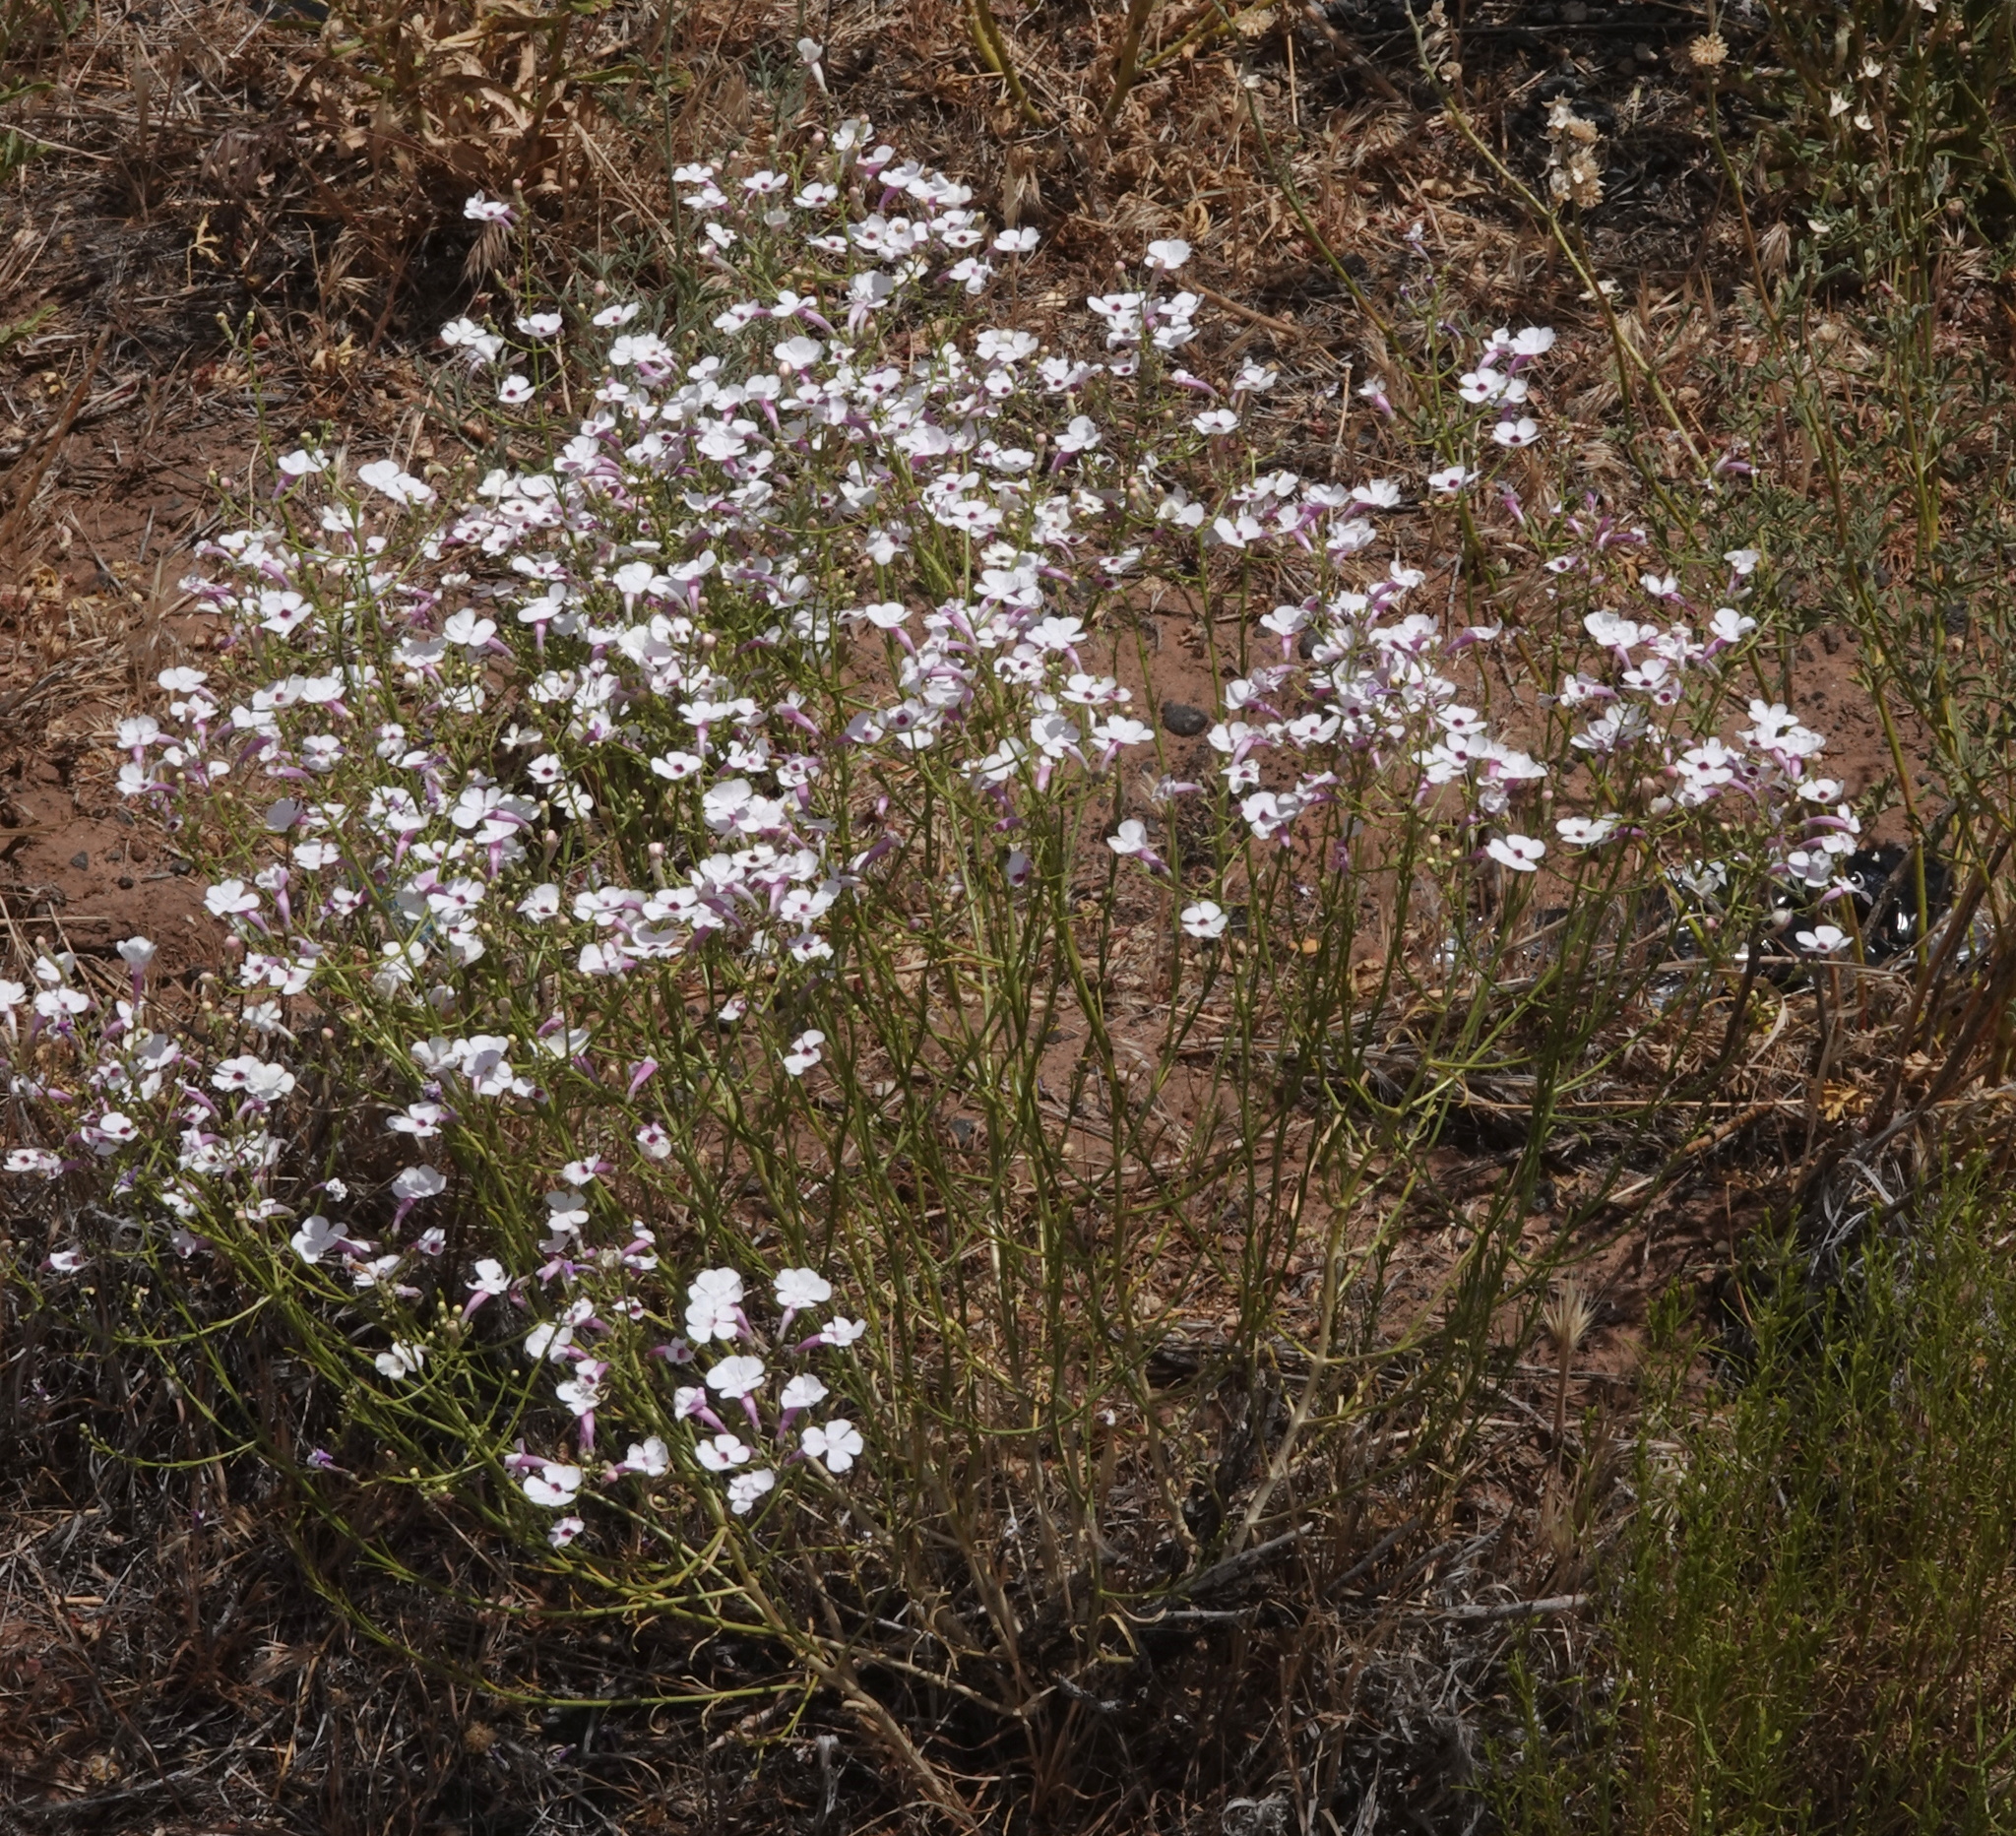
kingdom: Plantae
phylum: Tracheophyta
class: Magnoliopsida
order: Lamiales
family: Plantaginaceae
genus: Penstemon
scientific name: Penstemon ambiguus
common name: Bush penstemon
